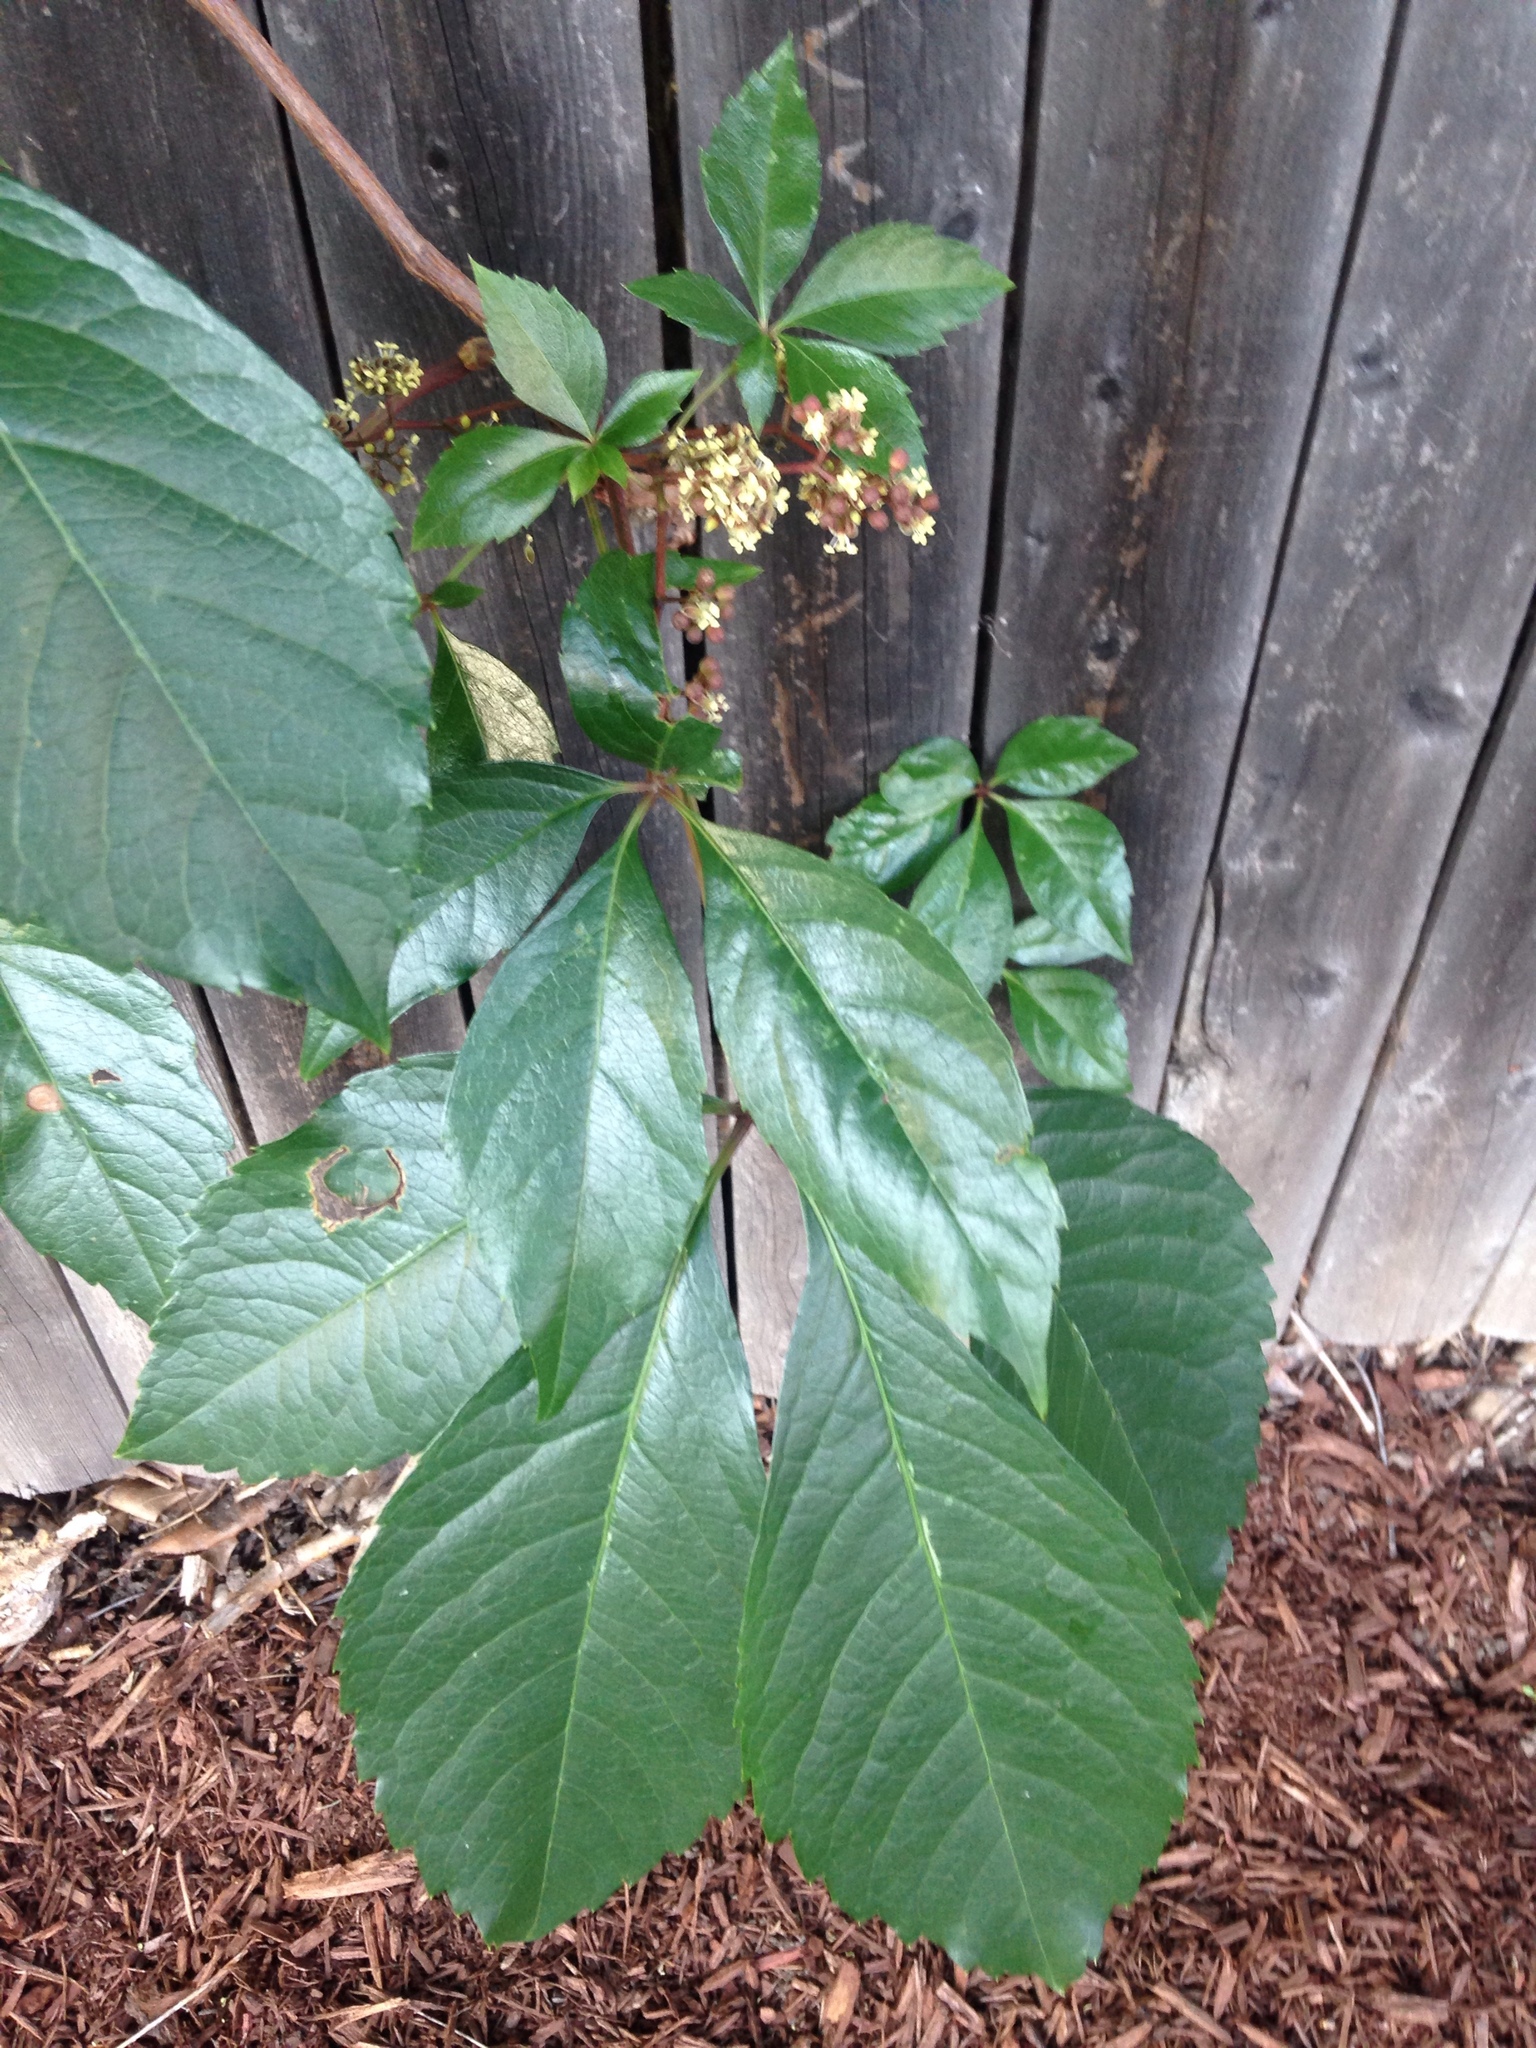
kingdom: Plantae
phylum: Tracheophyta
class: Magnoliopsida
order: Vitales
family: Vitaceae
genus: Parthenocissus
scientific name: Parthenocissus quinquefolia
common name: Virginia-creeper
